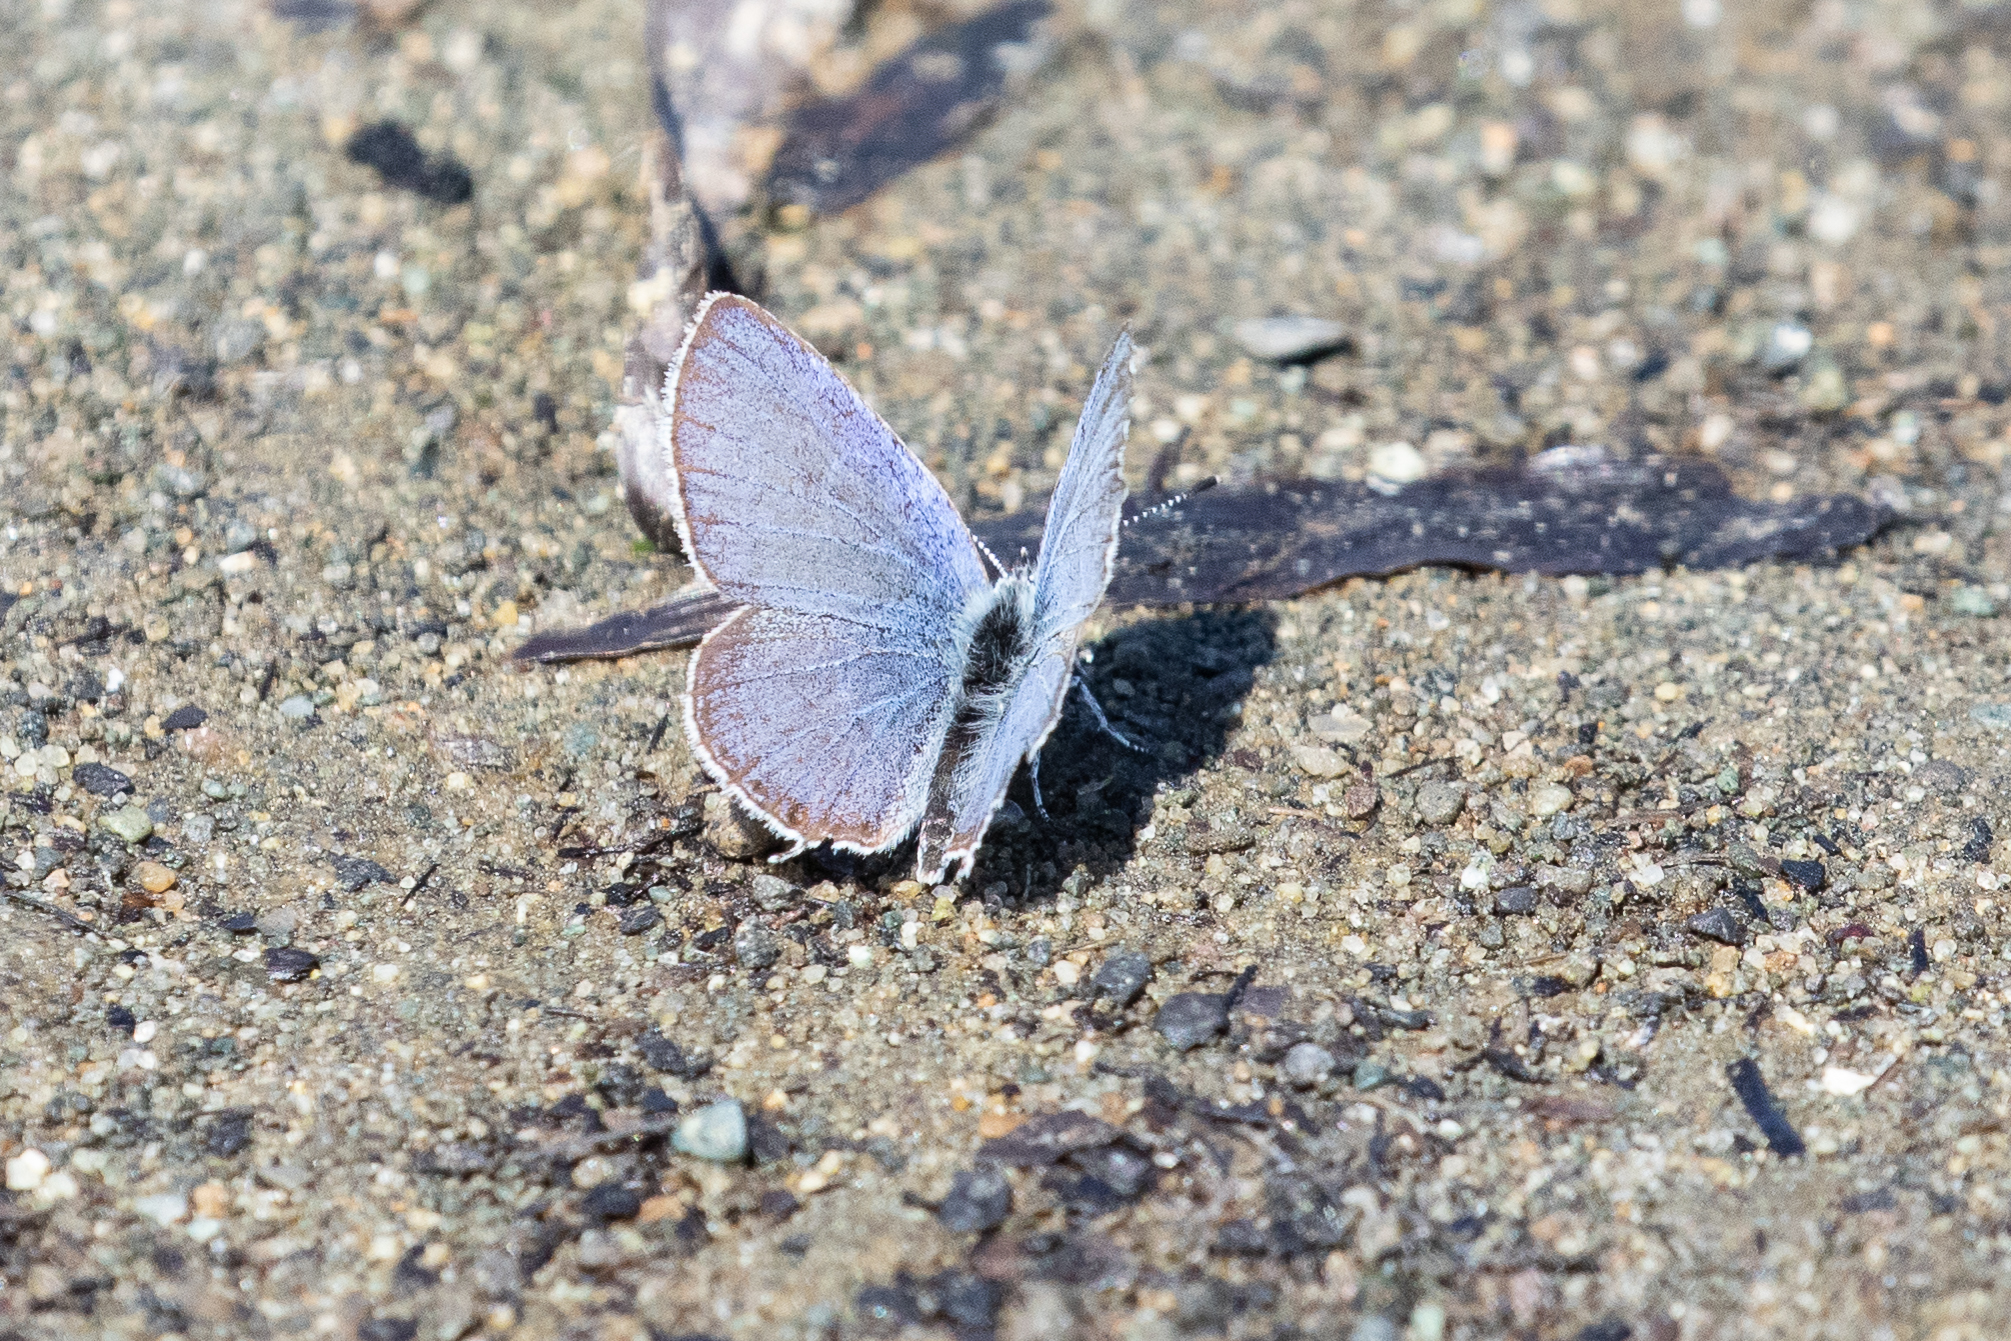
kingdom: Animalia
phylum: Arthropoda
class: Insecta
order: Lepidoptera
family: Lycaenidae
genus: Elkalyce
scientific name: Elkalyce amyntula
